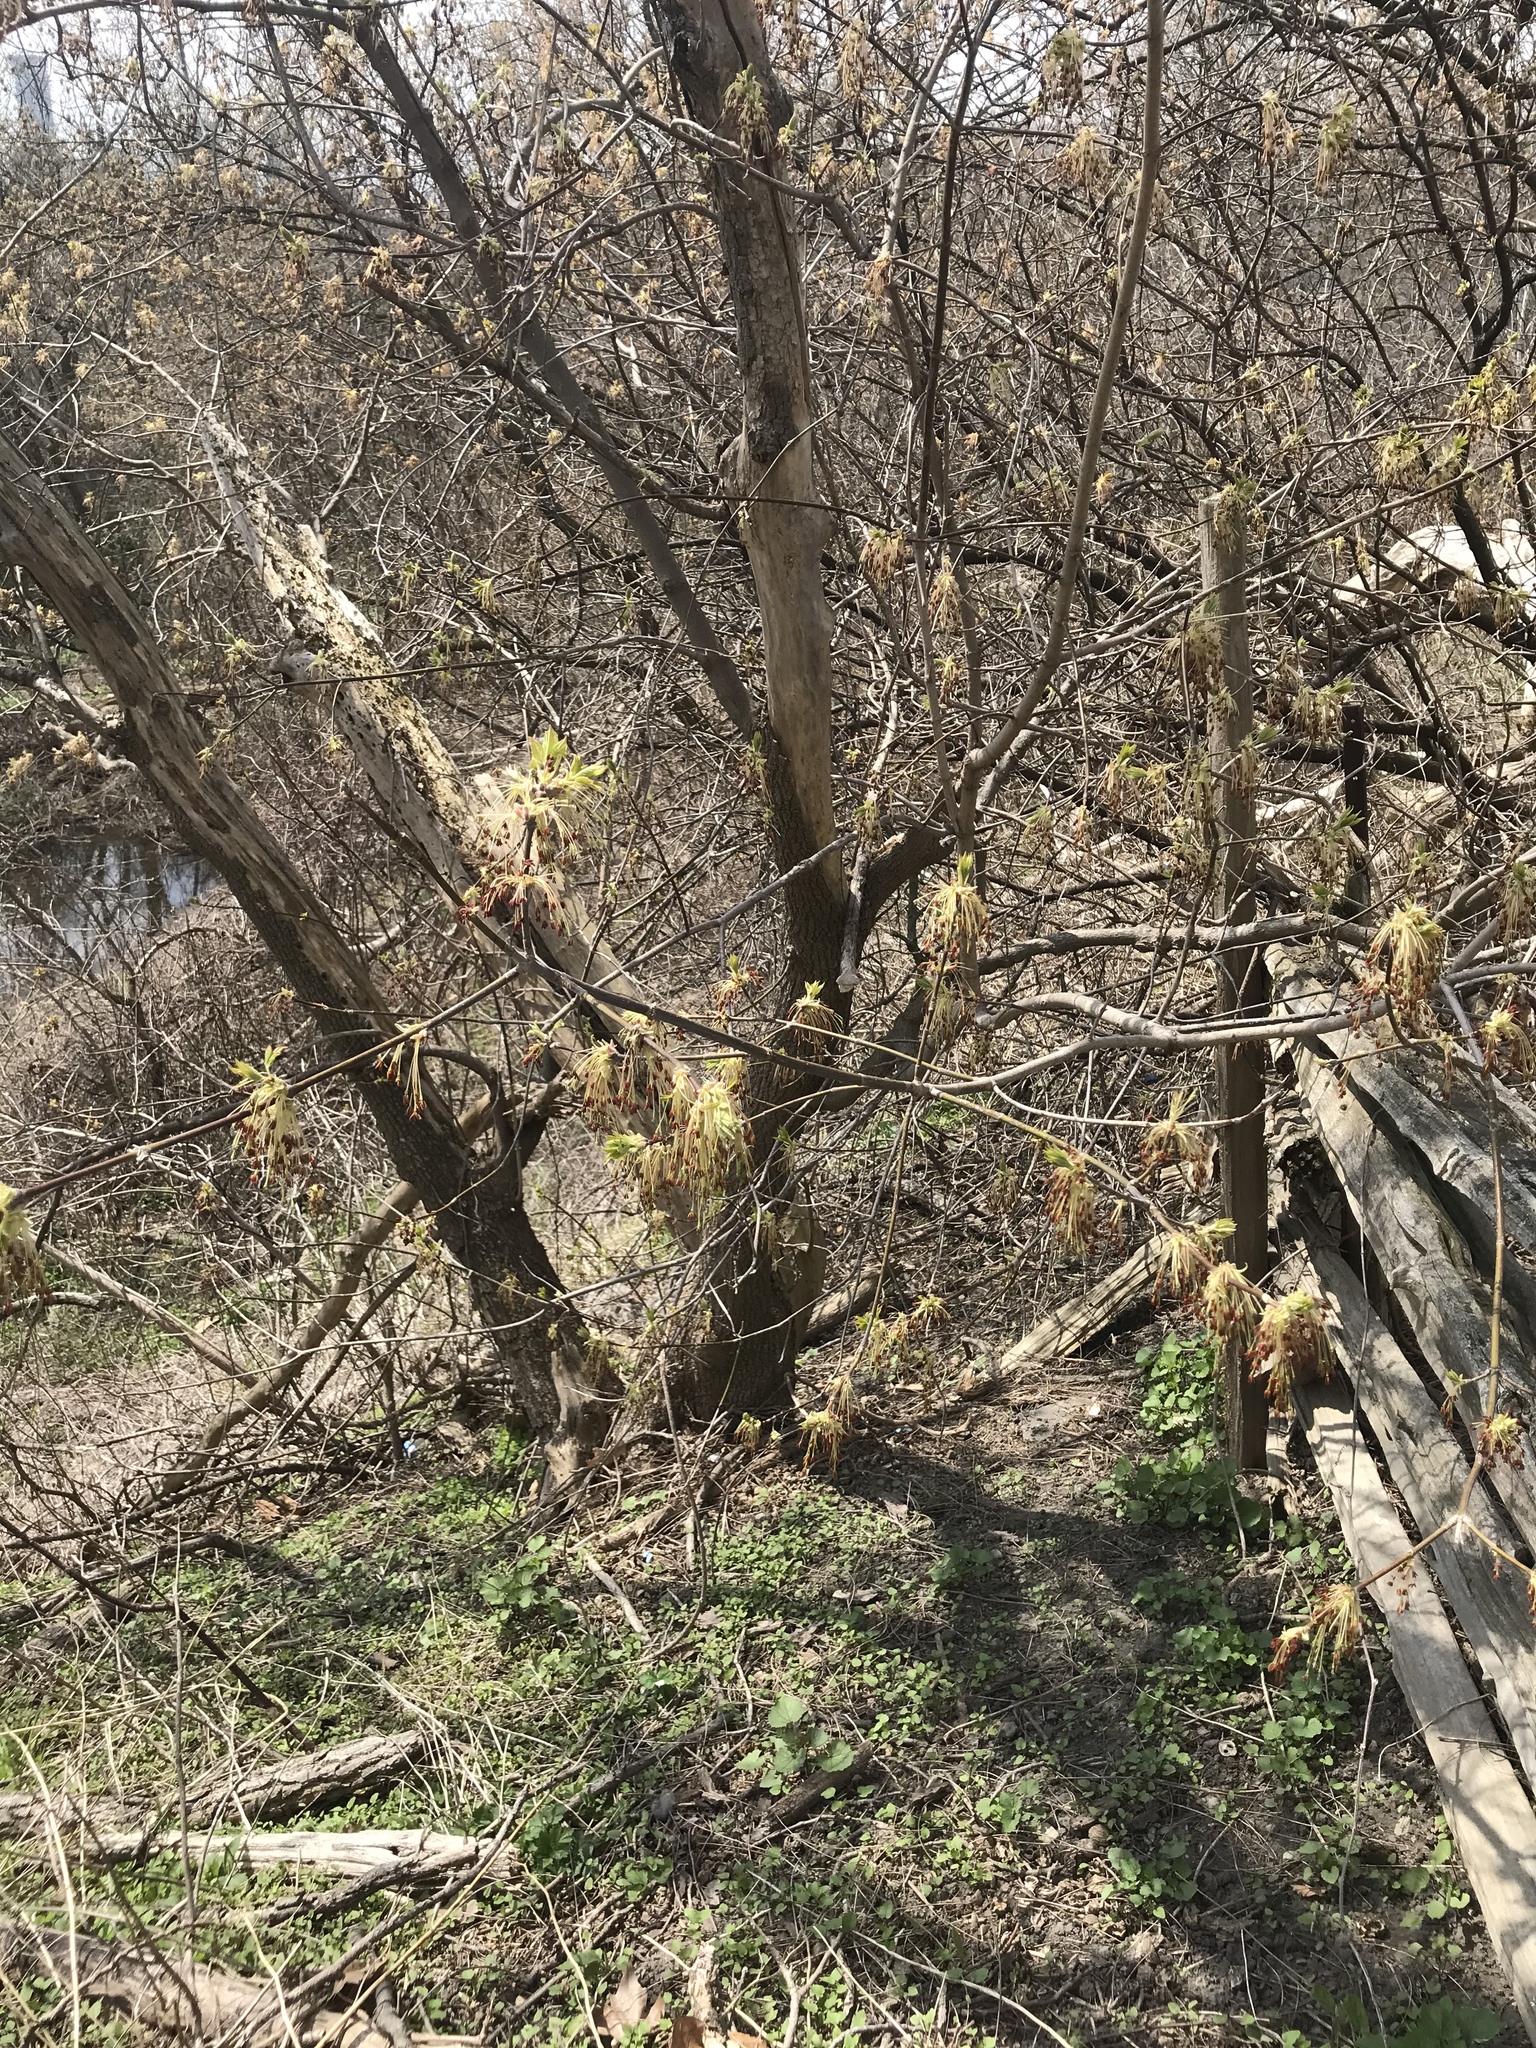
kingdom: Plantae
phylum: Tracheophyta
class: Magnoliopsida
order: Sapindales
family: Sapindaceae
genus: Acer
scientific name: Acer negundo
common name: Ashleaf maple
